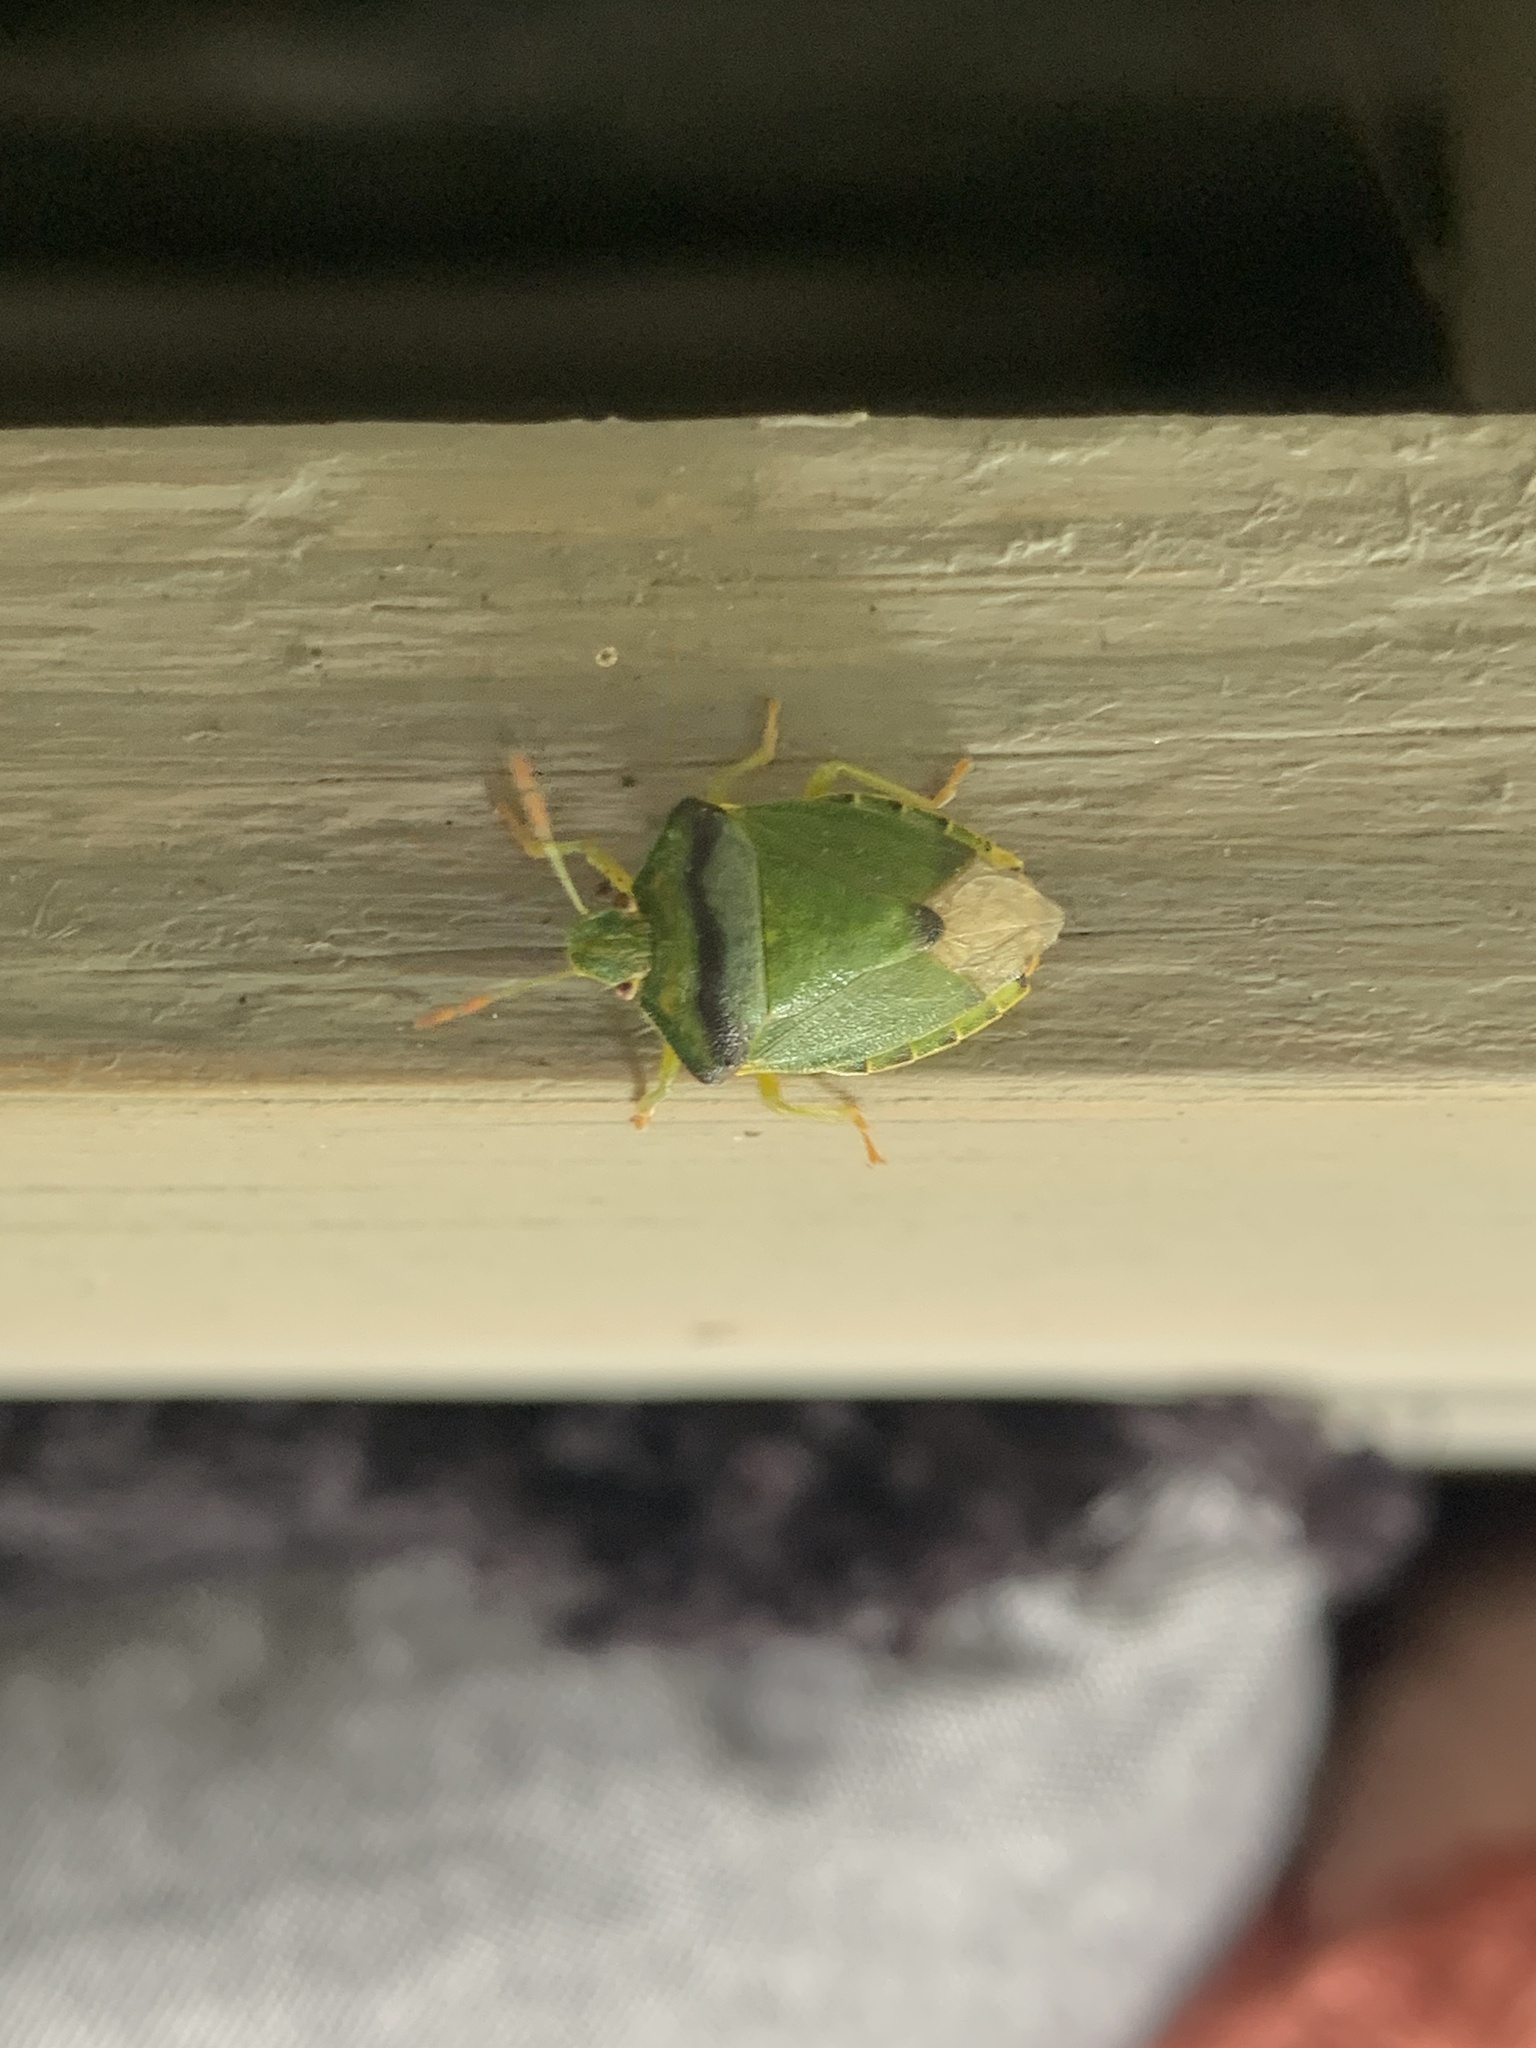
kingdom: Animalia
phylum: Arthropoda
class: Insecta
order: Hemiptera
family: Pentatomidae
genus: Palomena
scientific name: Palomena prasina
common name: Green shieldbug
